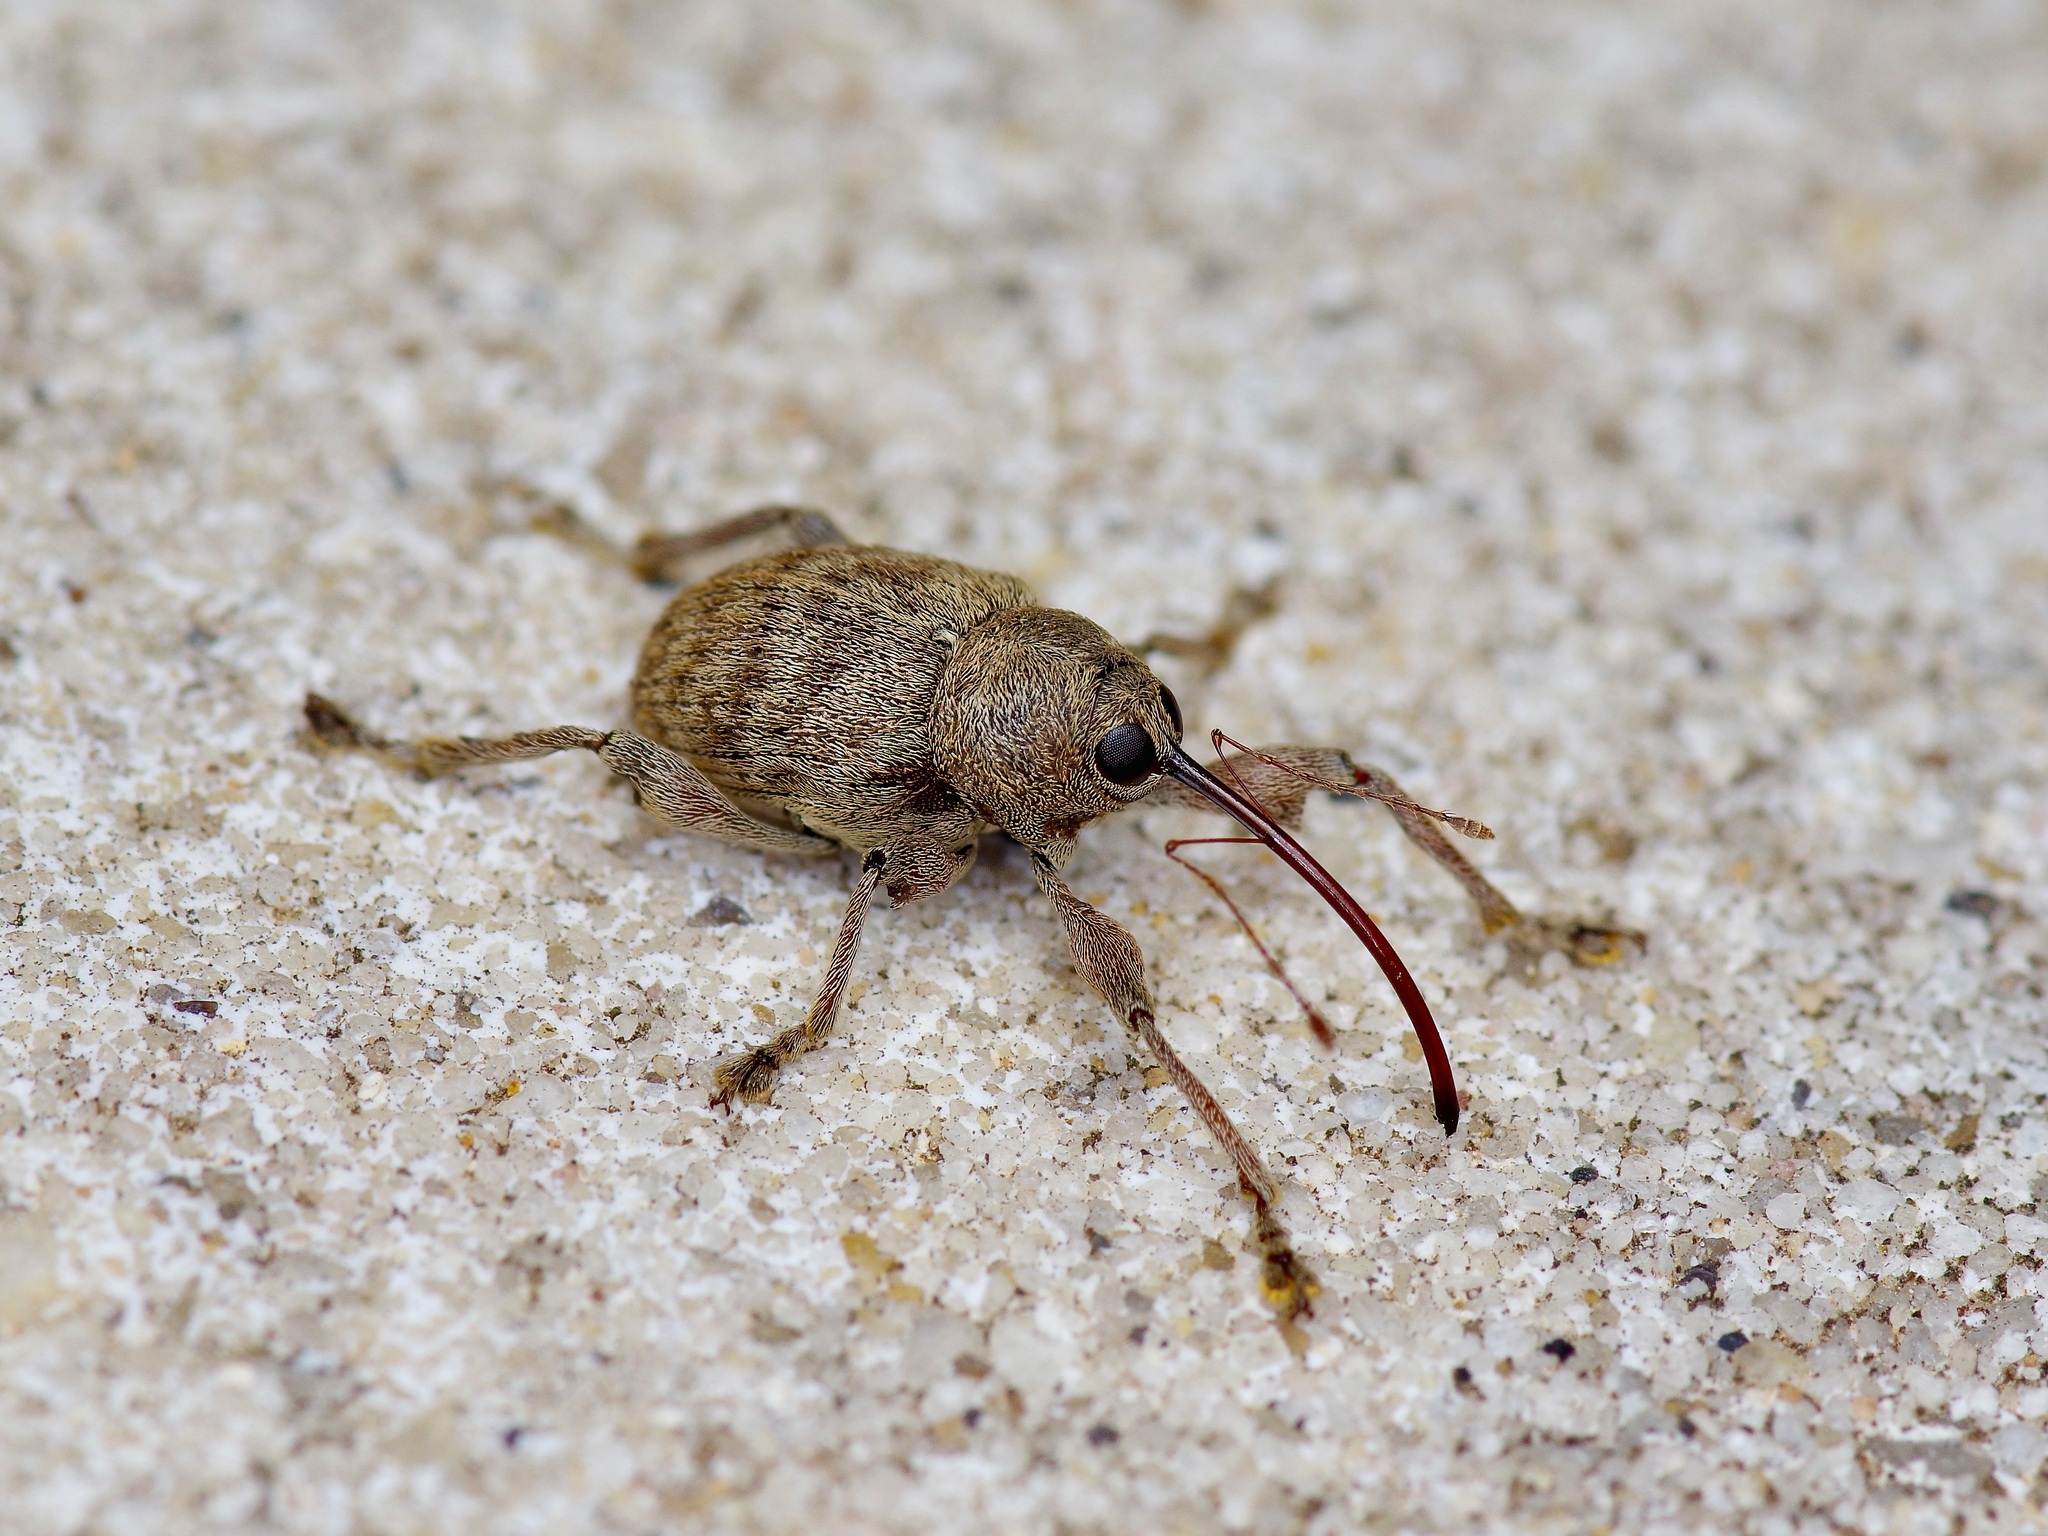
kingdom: Animalia
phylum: Arthropoda
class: Insecta
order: Coleoptera
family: Curculionidae
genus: Curculio
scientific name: Curculio
